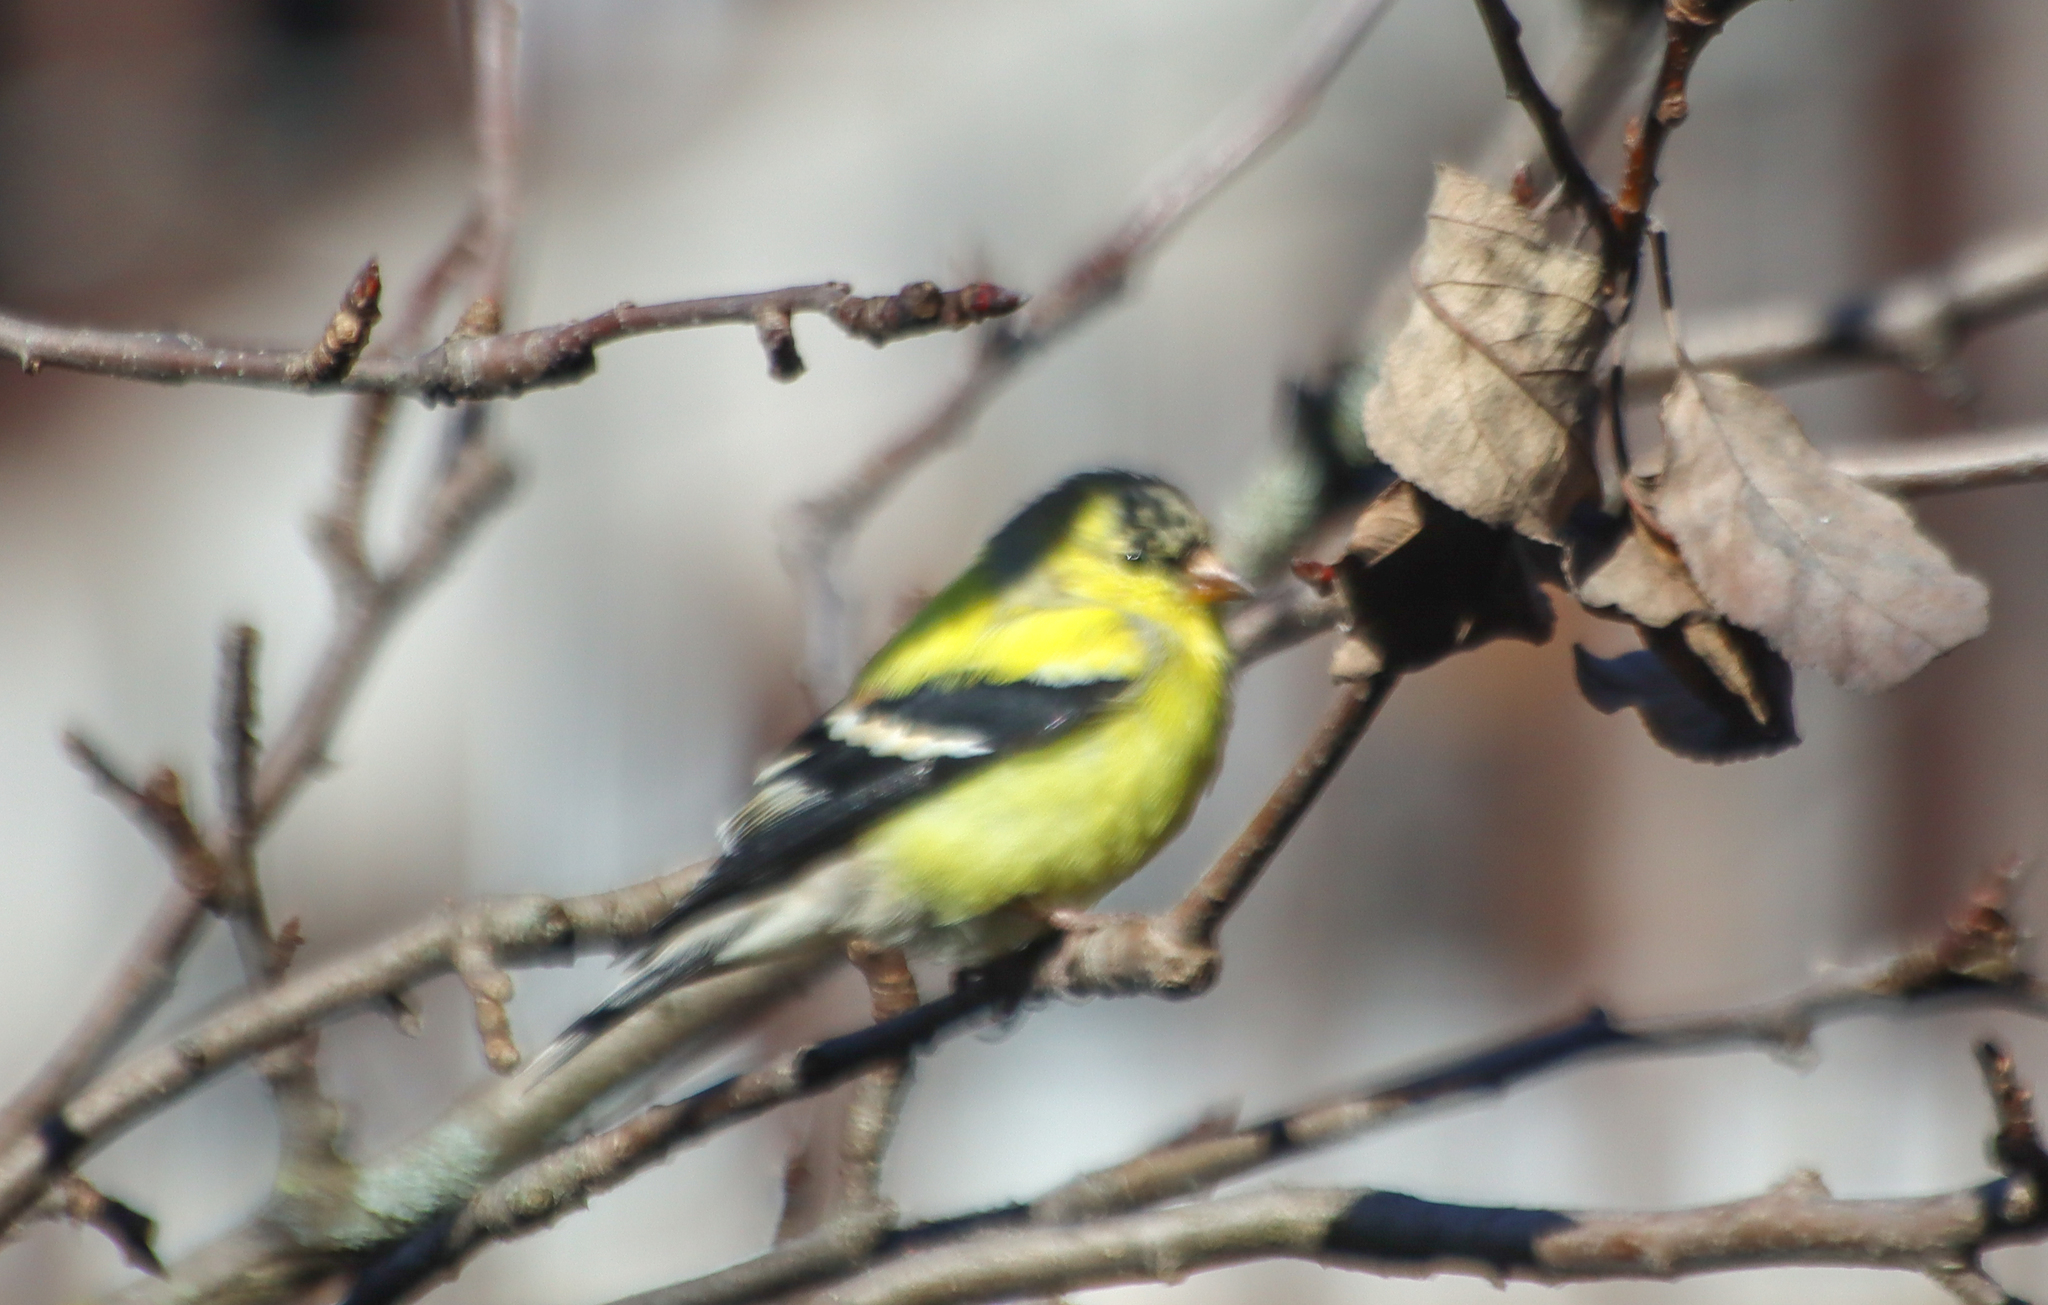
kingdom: Animalia
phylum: Chordata
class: Aves
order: Passeriformes
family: Fringillidae
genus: Spinus
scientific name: Spinus tristis
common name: American goldfinch
